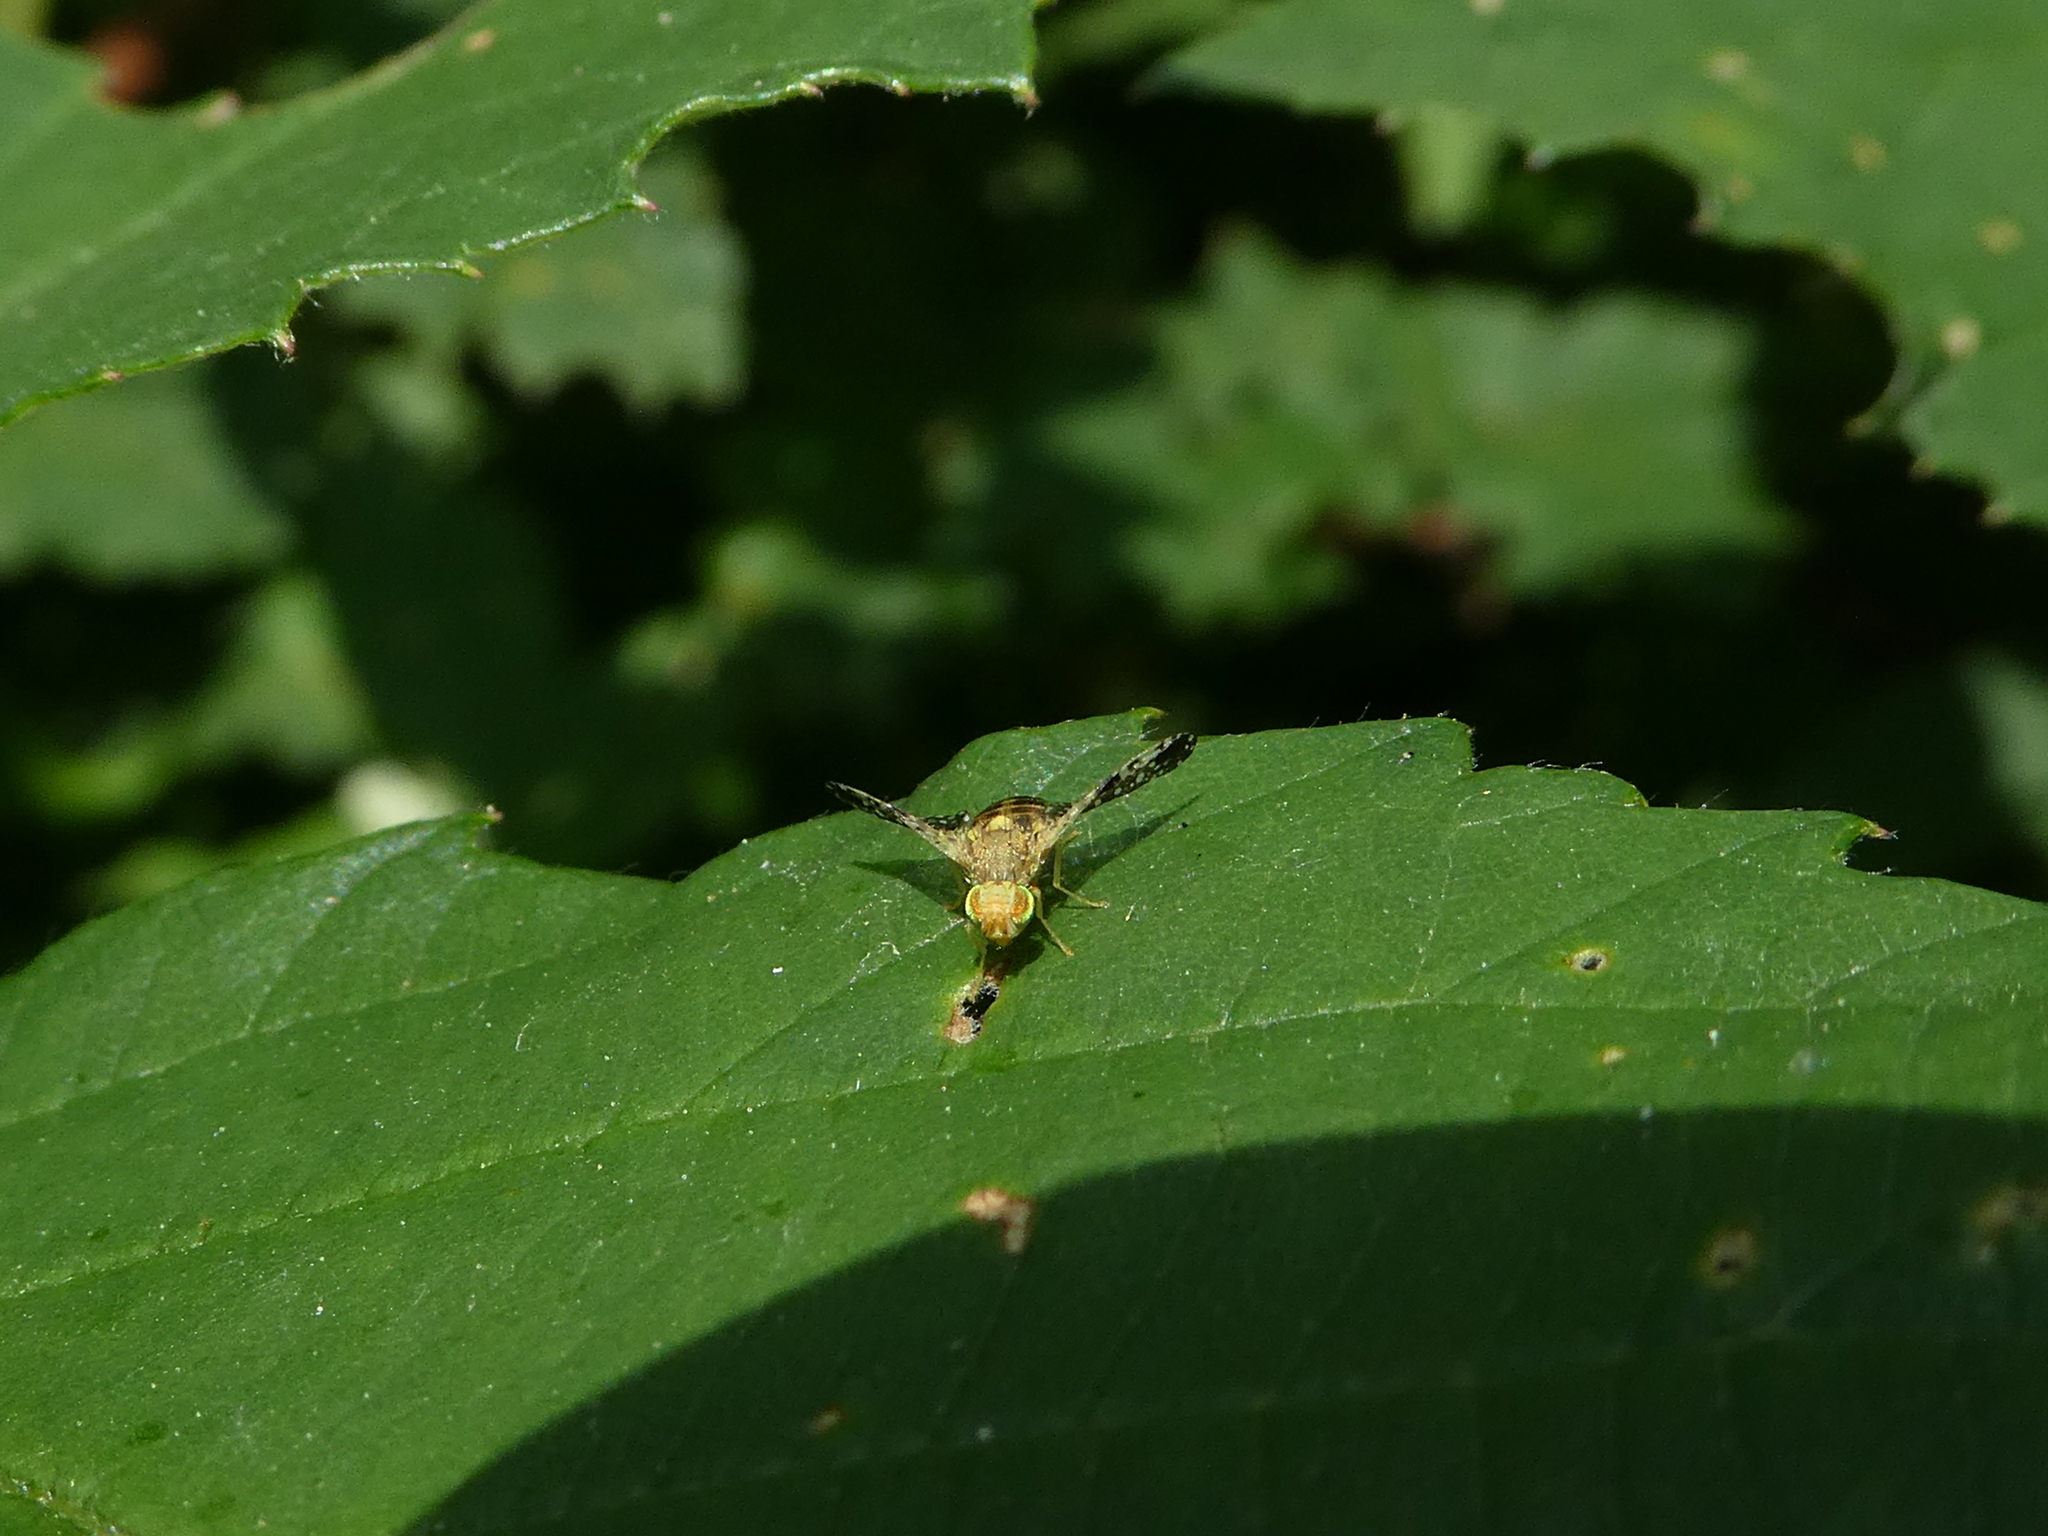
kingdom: Animalia
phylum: Arthropoda
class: Insecta
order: Diptera
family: Tephritidae
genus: Ictericodes
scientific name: Ictericodes zelleri
